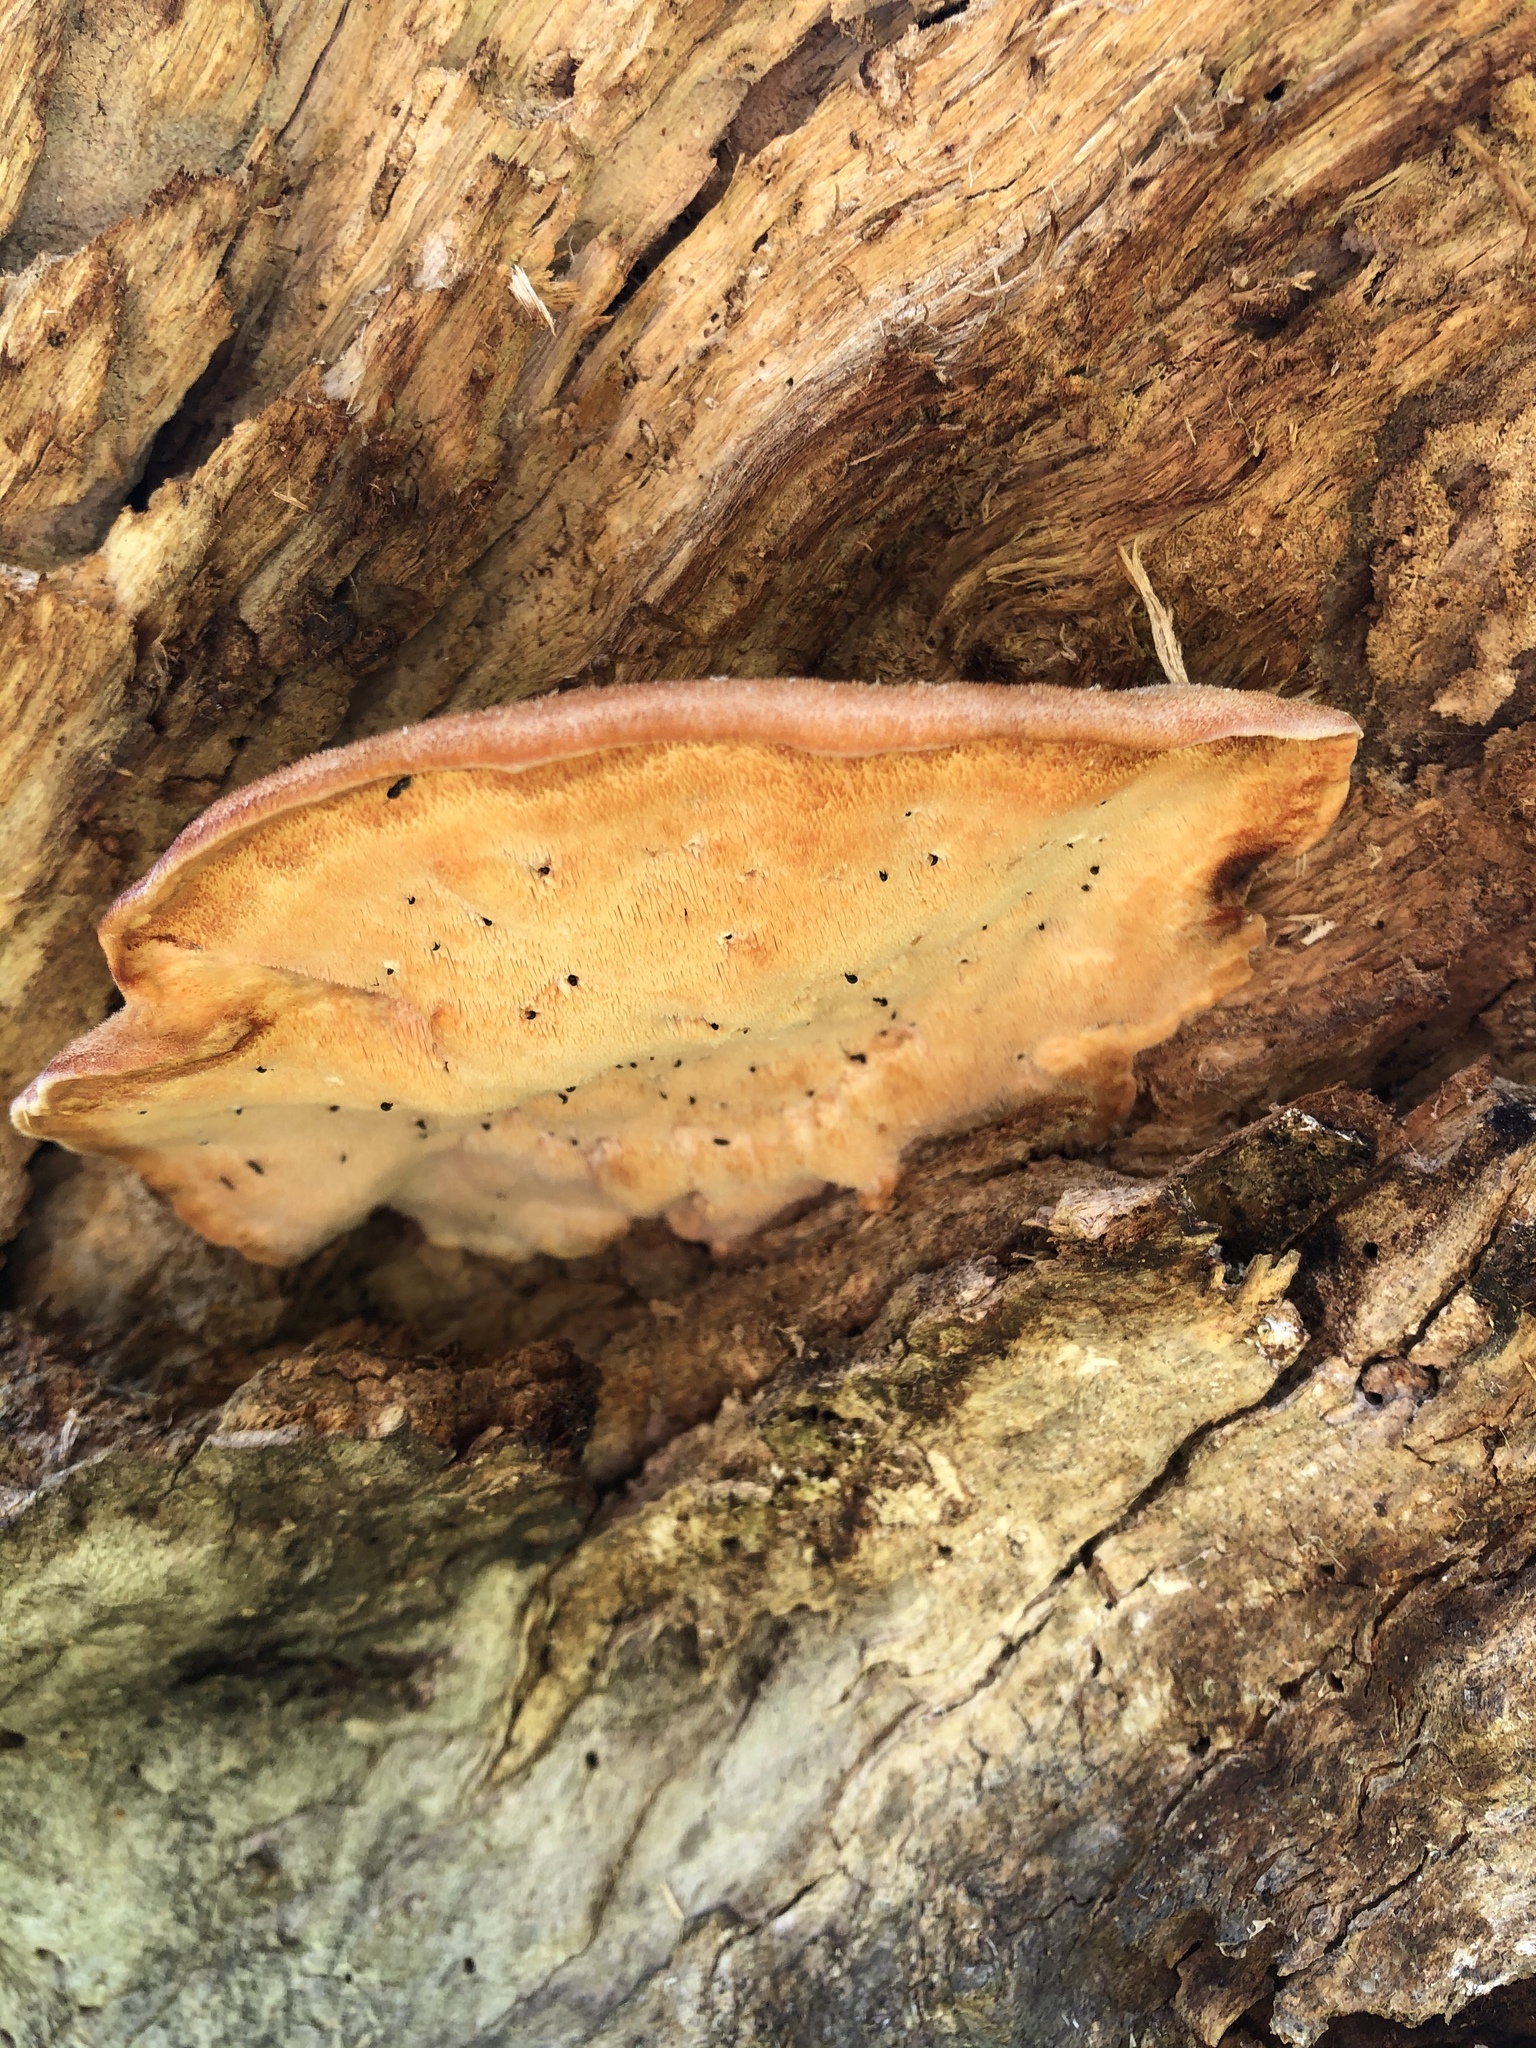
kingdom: Fungi
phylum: Basidiomycota
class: Agaricomycetes
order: Polyporales
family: Meruliaceae
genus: Donkia
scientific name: Donkia pulcherrima
